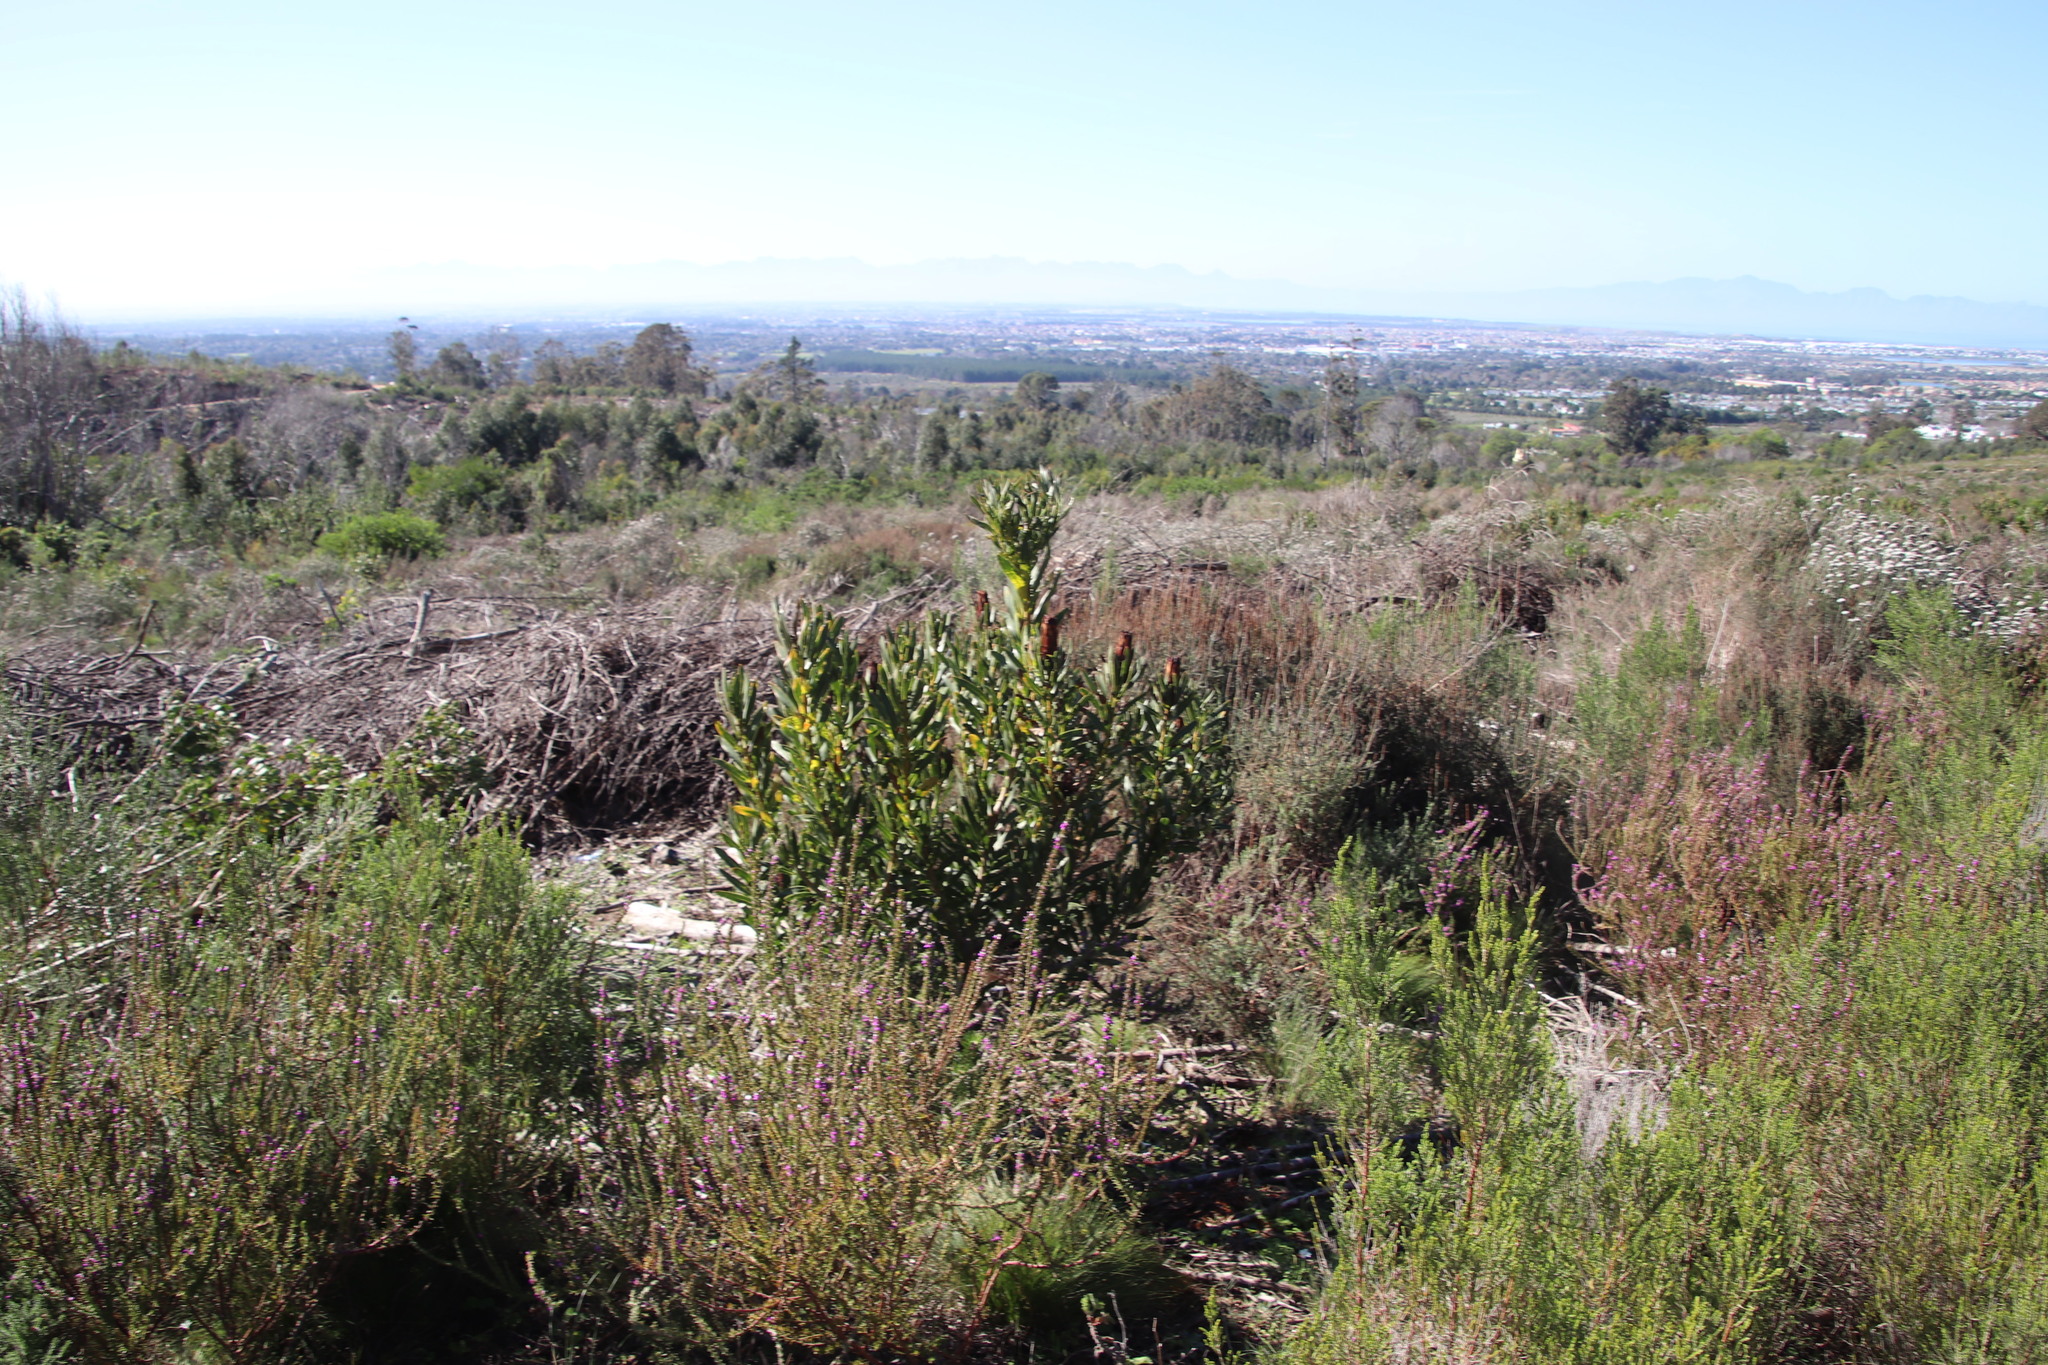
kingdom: Plantae
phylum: Tracheophyta
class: Magnoliopsida
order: Proteales
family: Proteaceae
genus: Protea
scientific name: Protea lepidocarpodendron
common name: Black-bearded protea
